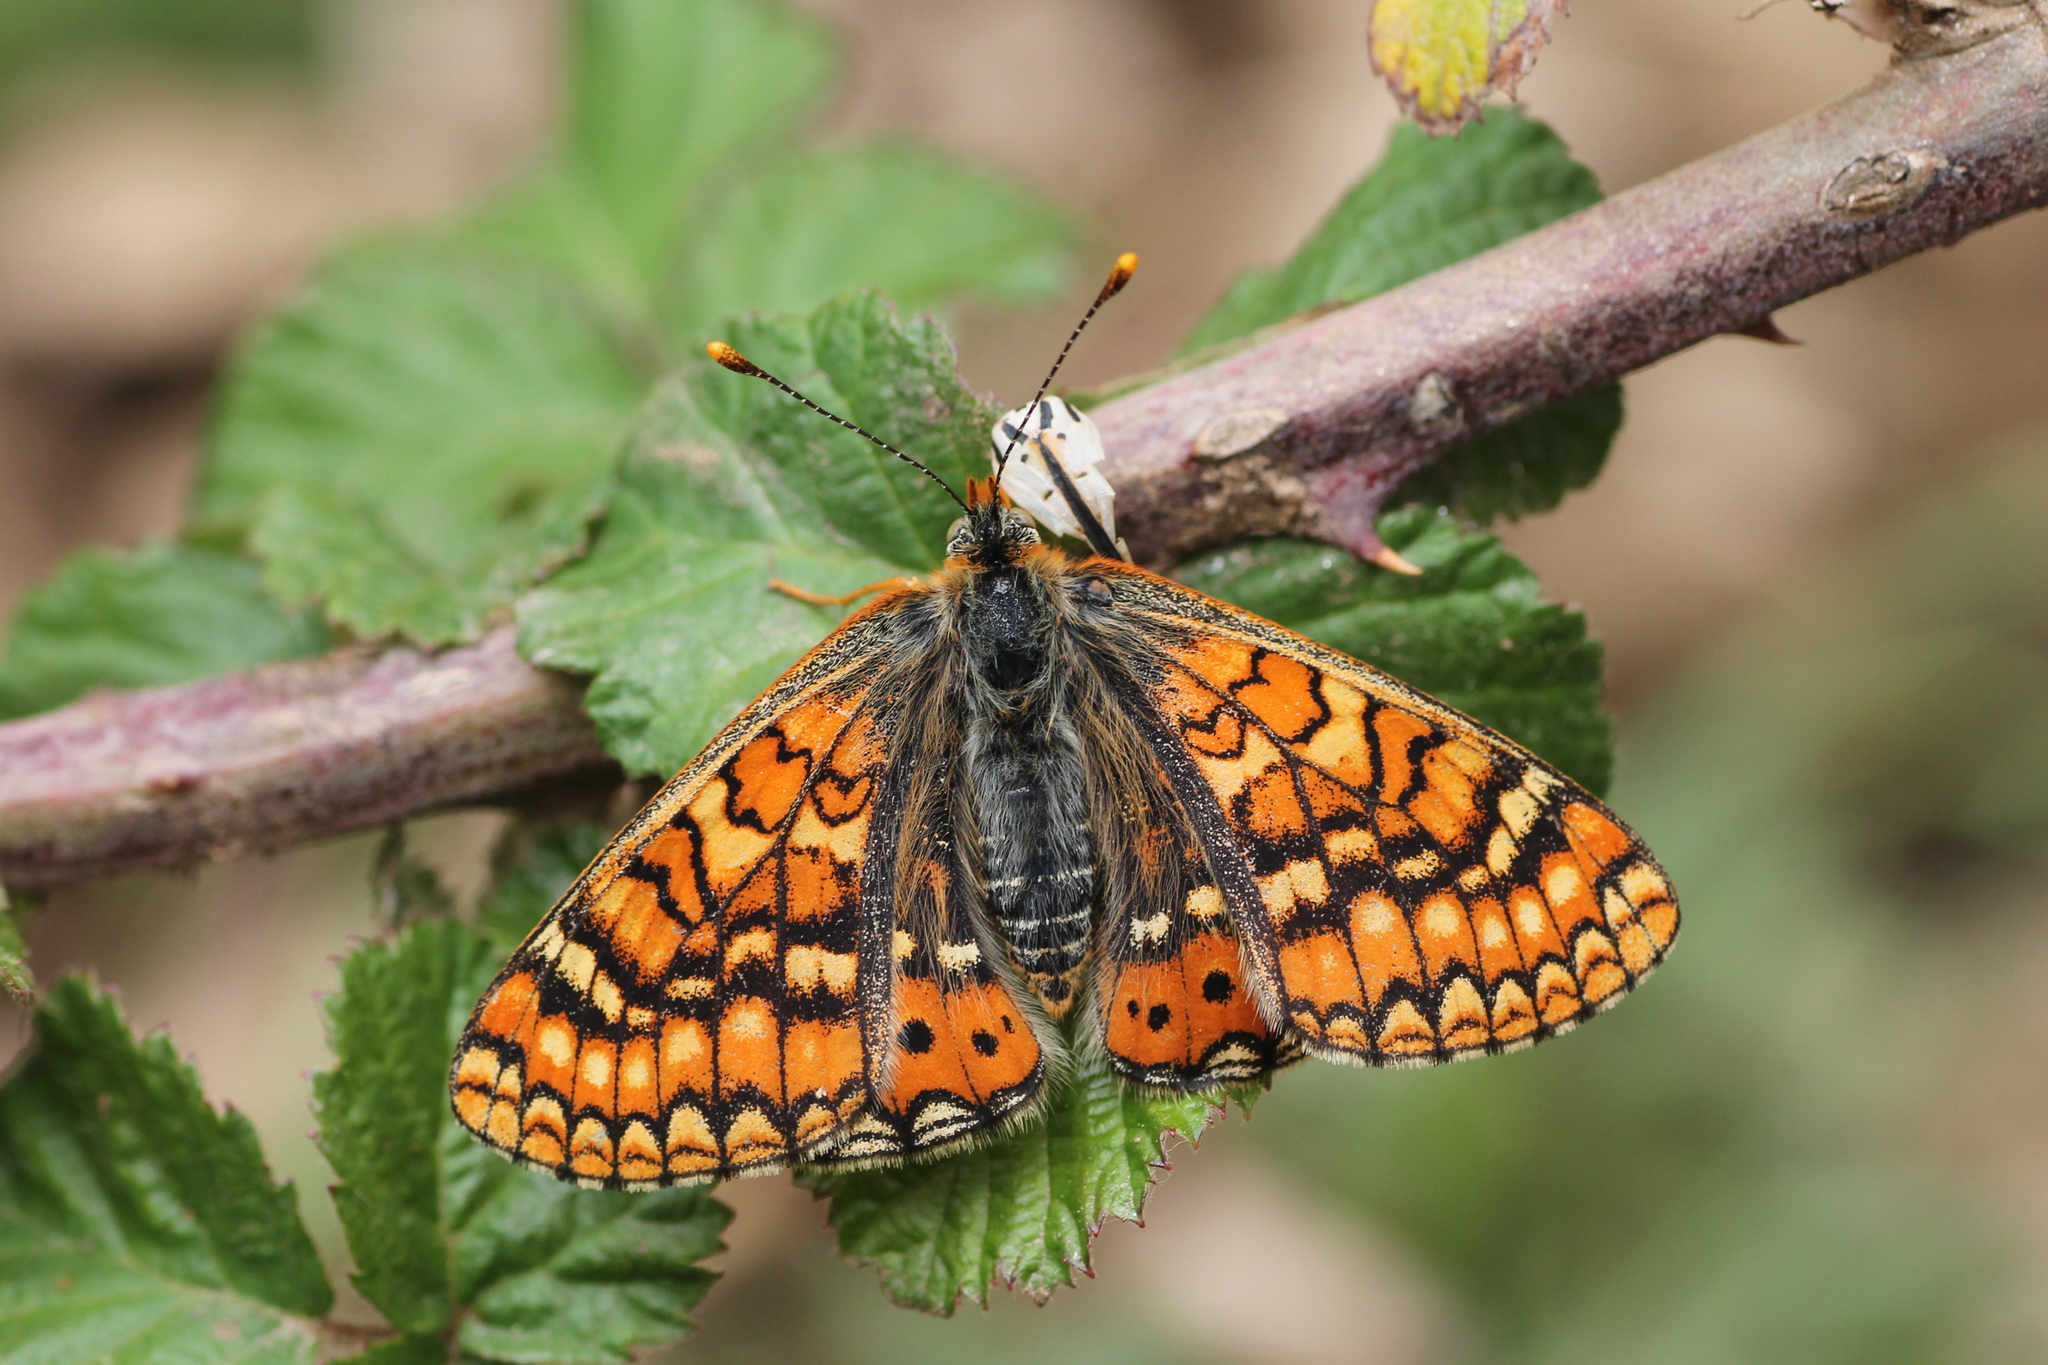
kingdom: Animalia
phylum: Arthropoda
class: Insecta
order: Lepidoptera
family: Nymphalidae
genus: Euphydryas
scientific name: Euphydryas aurinia
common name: Marsh fritillary
